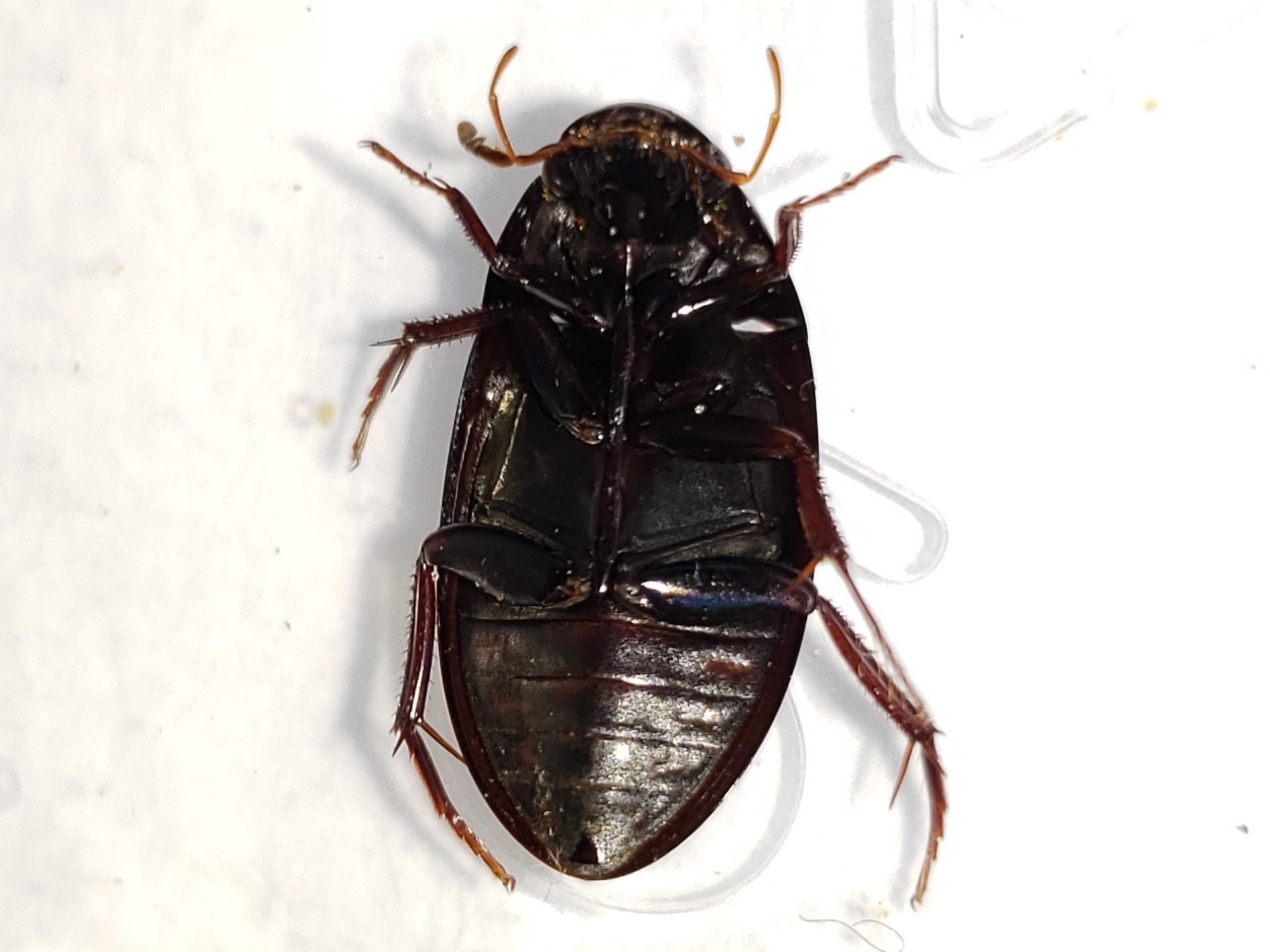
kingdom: Animalia
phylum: Arthropoda
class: Insecta
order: Coleoptera
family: Hydrophilidae
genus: Hydrobiomorpha
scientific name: Hydrobiomorpha casta
